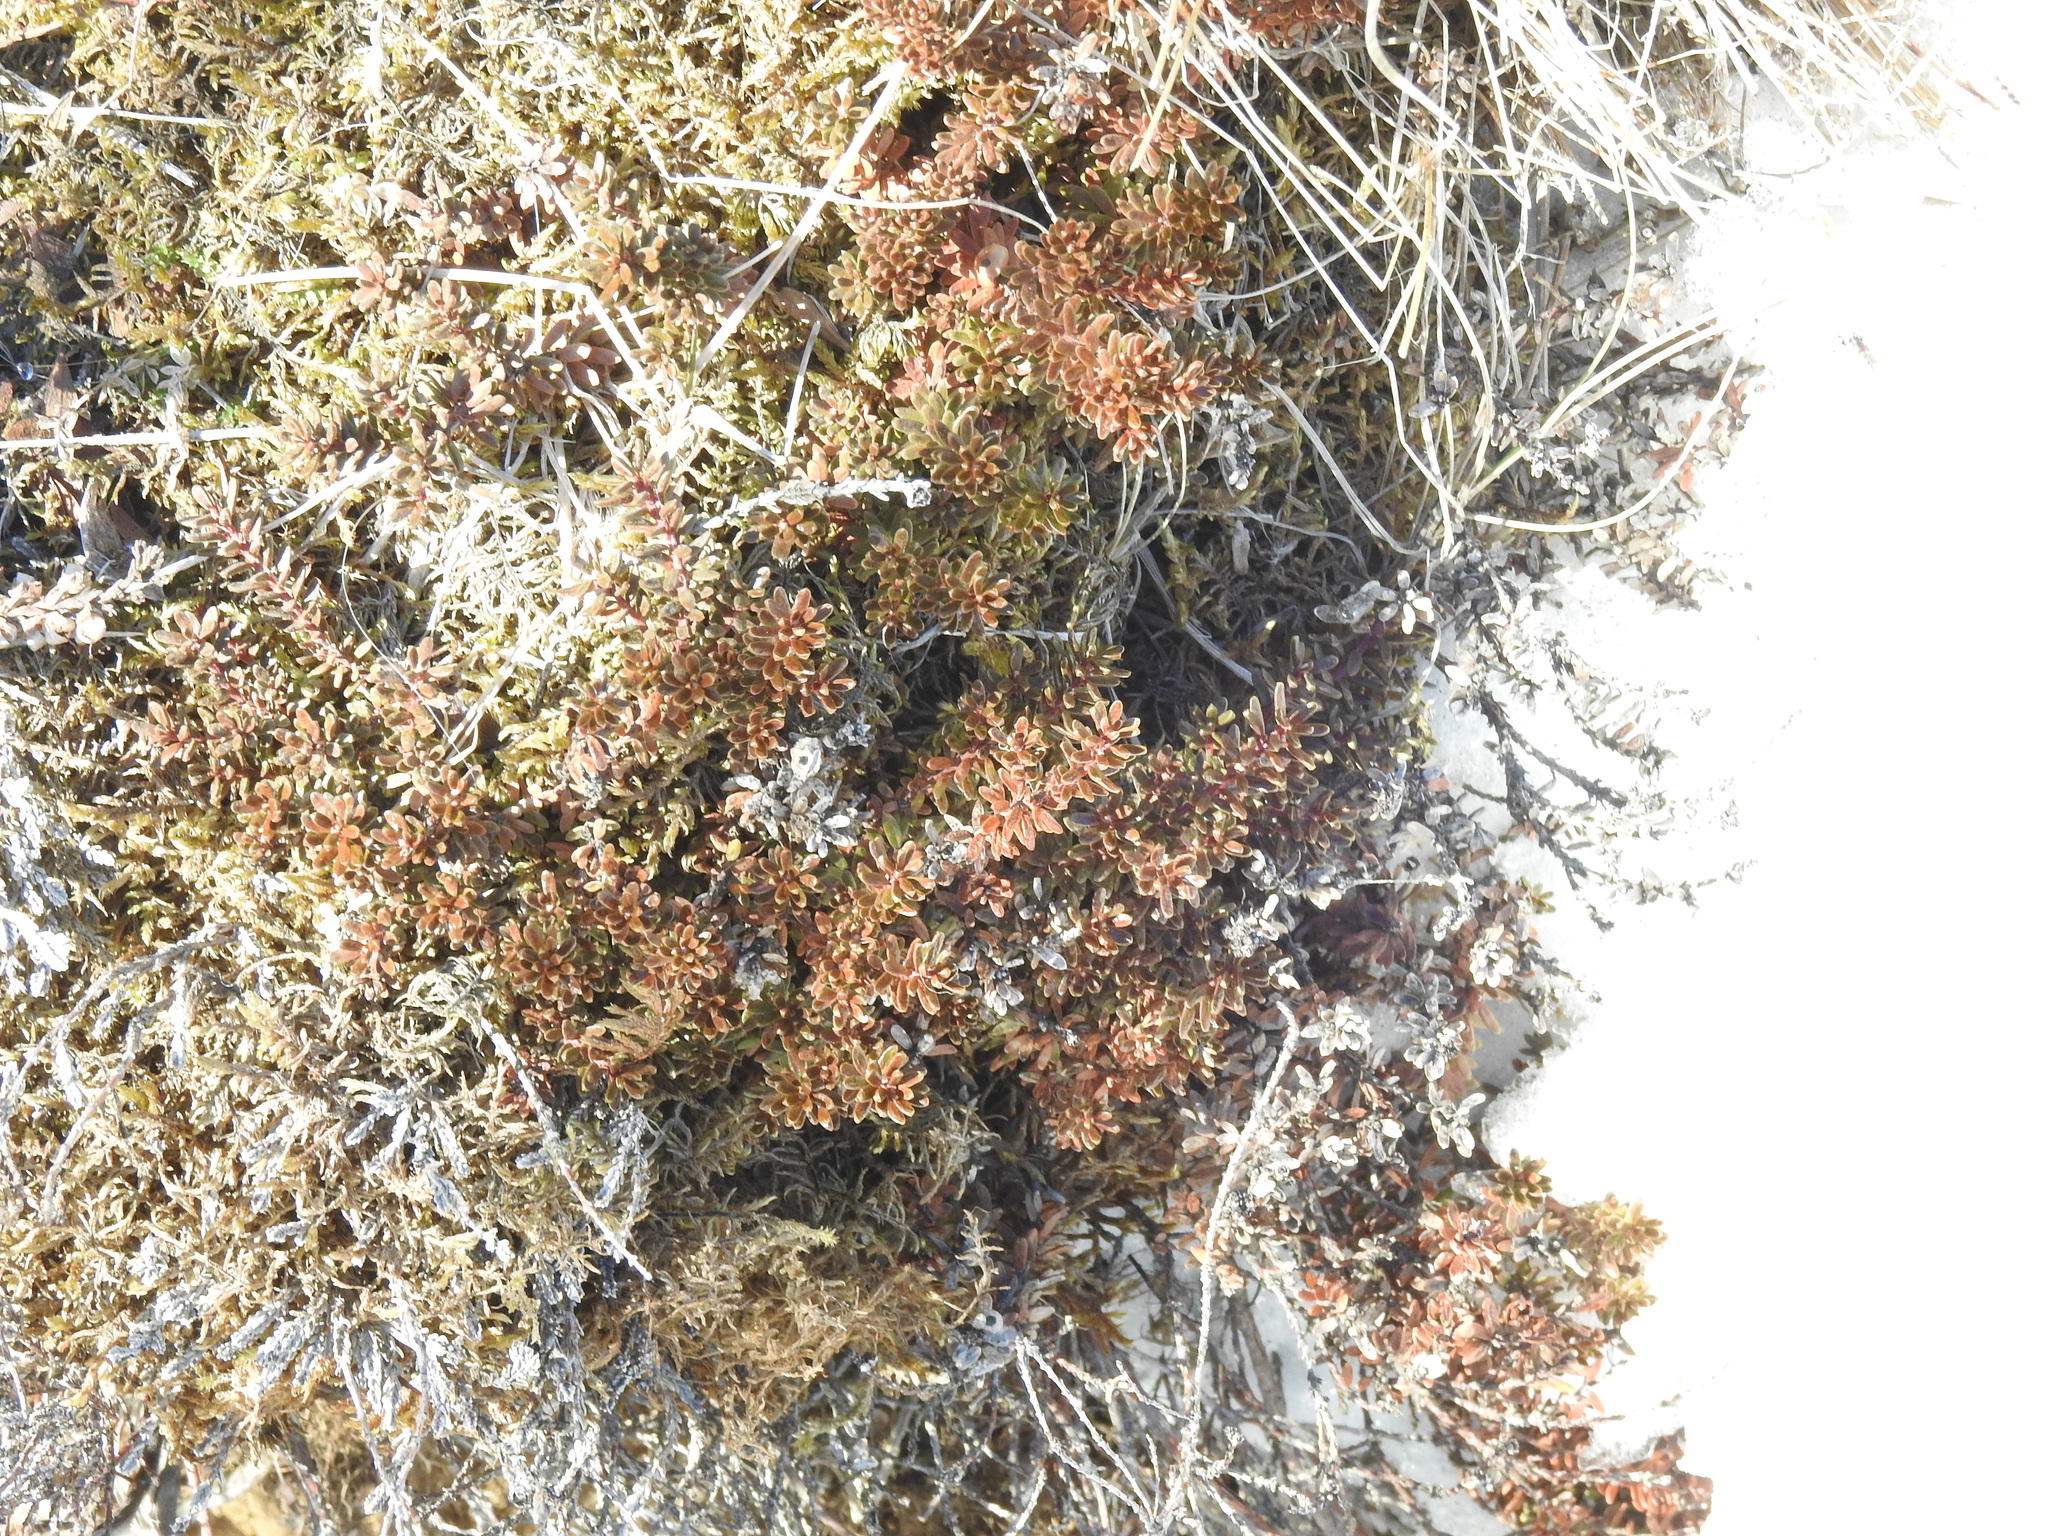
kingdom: Plantae
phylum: Tracheophyta
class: Magnoliopsida
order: Ericales
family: Ericaceae
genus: Empetrum
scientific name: Empetrum nigrum
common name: Black crowberry
